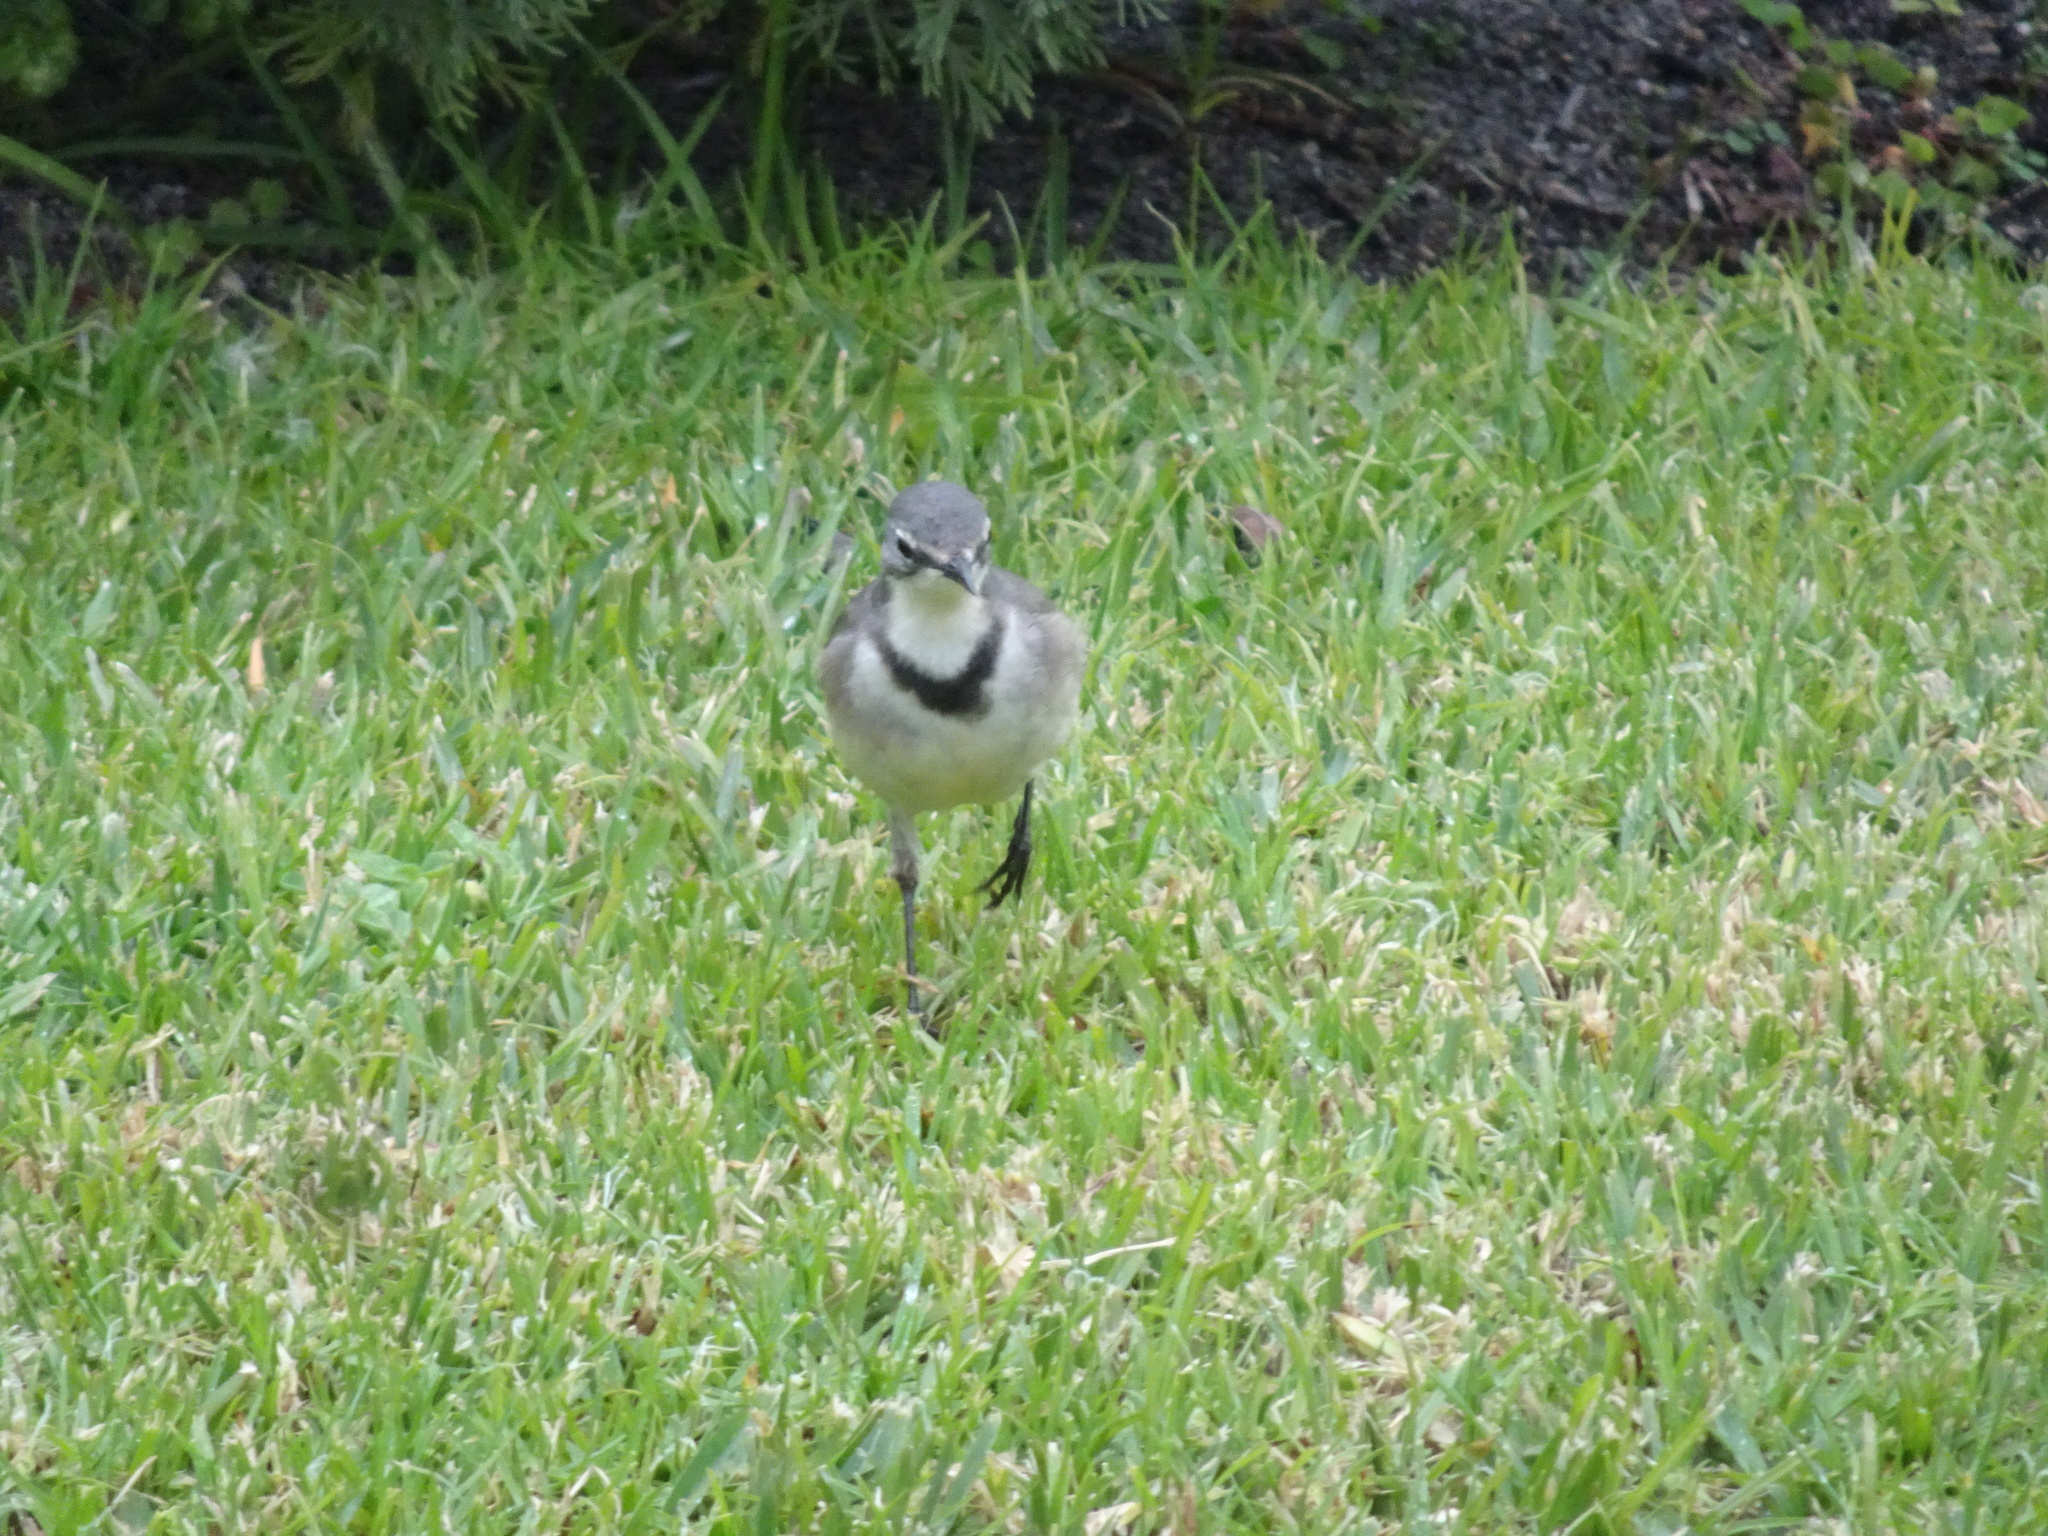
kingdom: Animalia
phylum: Chordata
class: Aves
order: Passeriformes
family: Motacillidae
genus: Motacilla
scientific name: Motacilla capensis
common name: Cape wagtail
